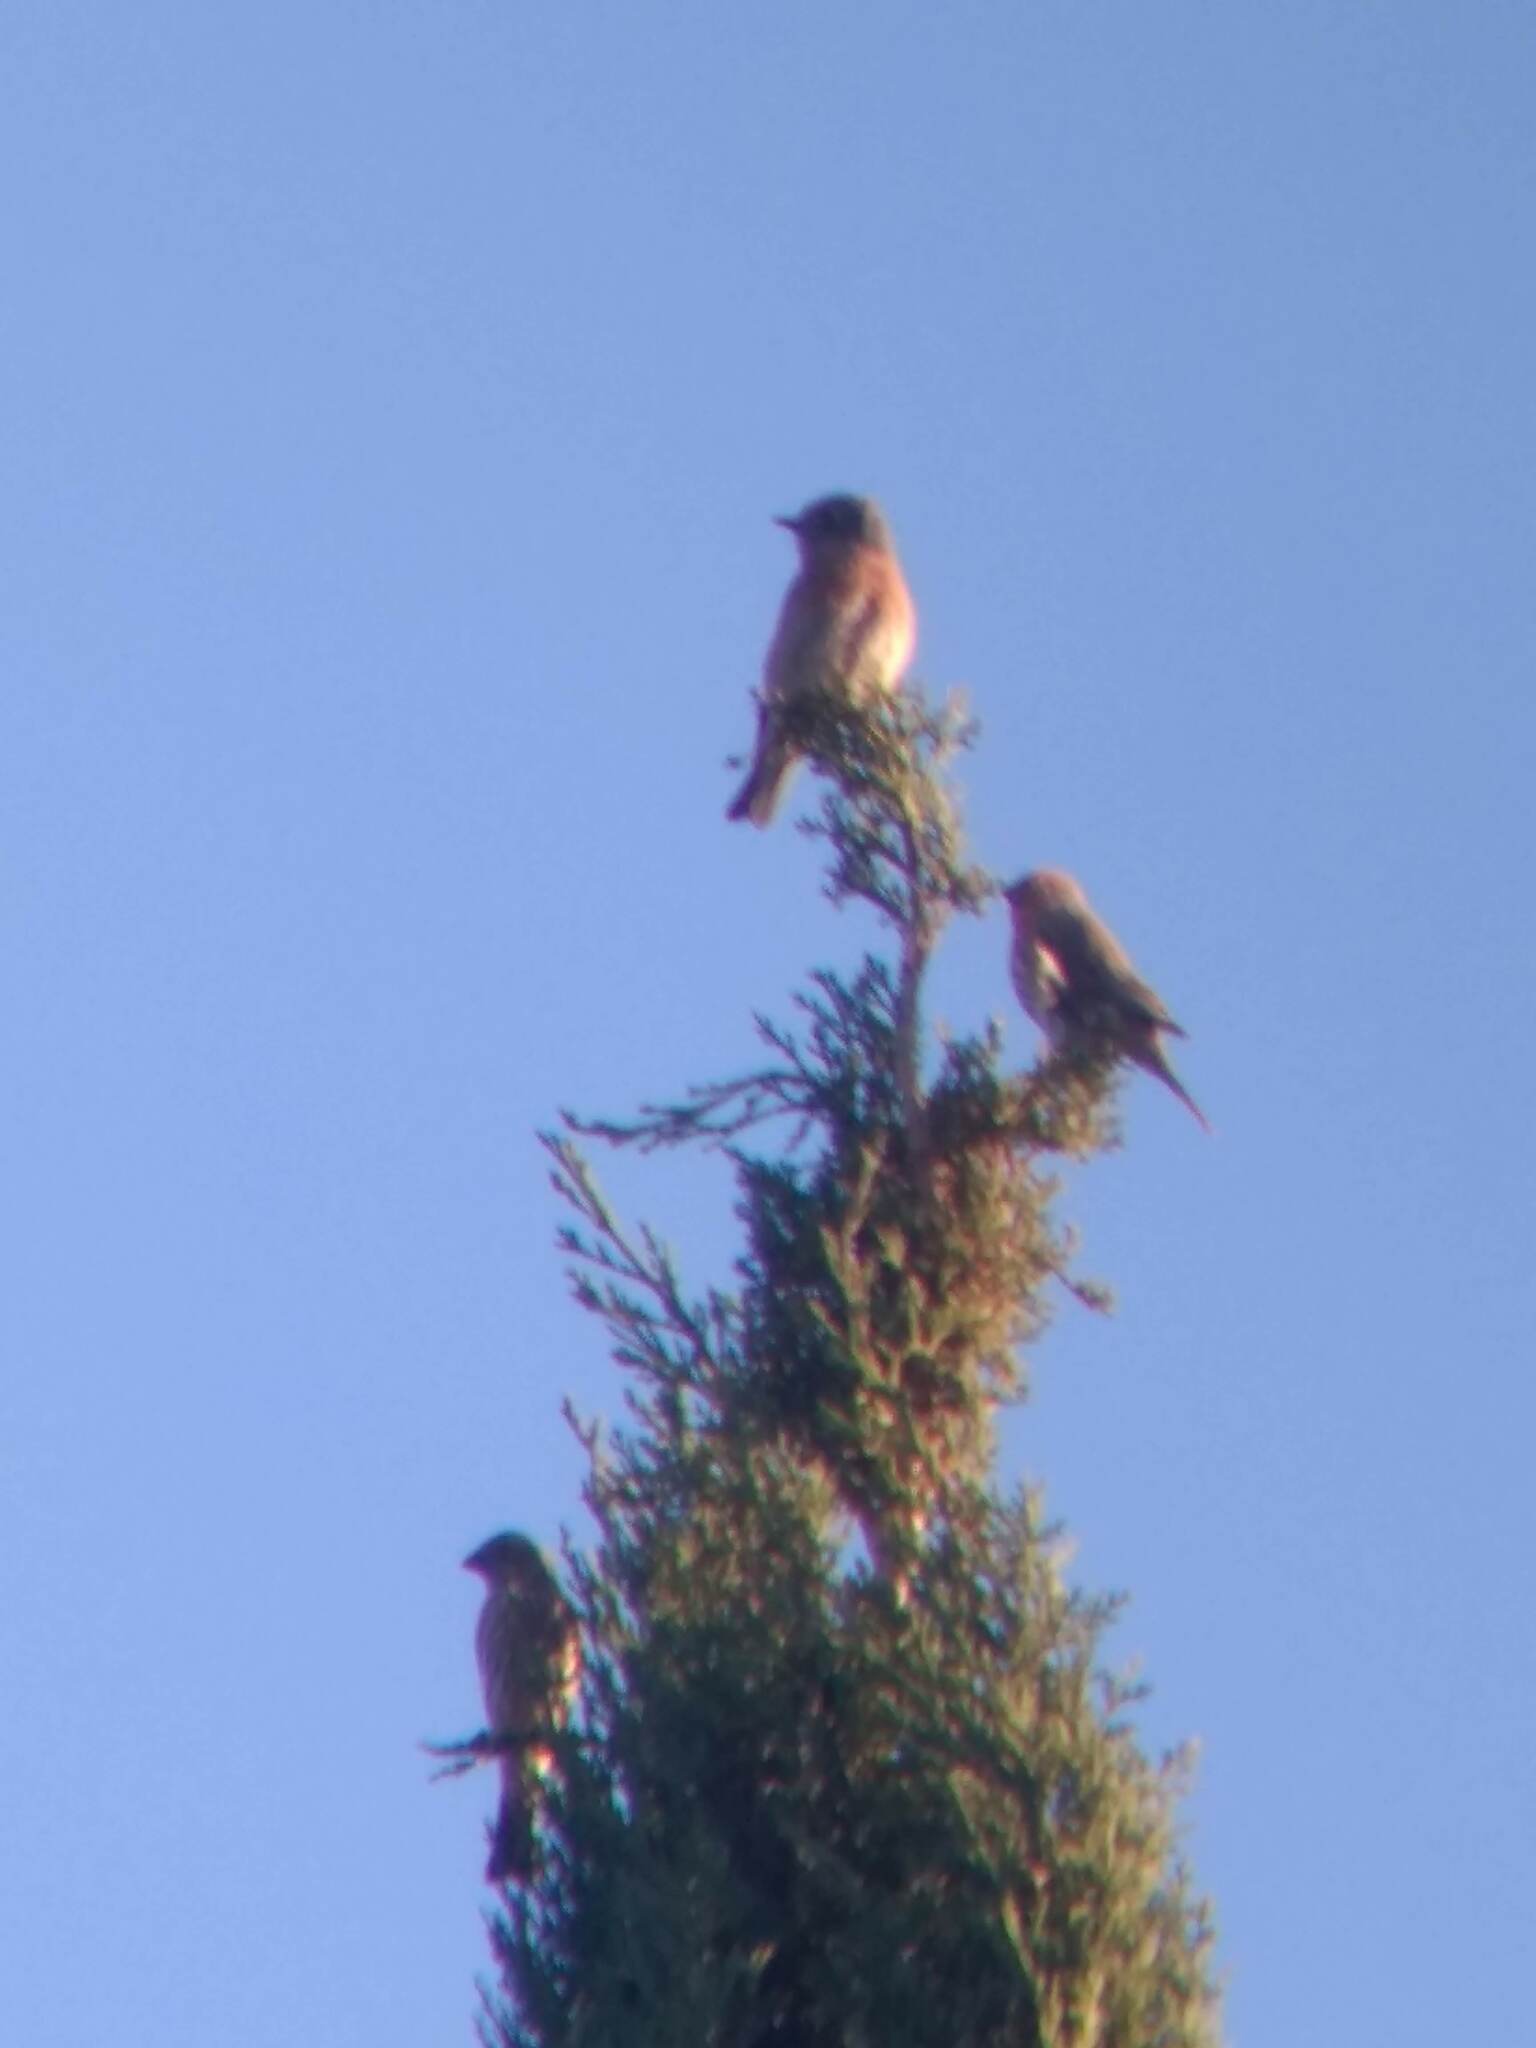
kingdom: Animalia
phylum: Chordata
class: Aves
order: Passeriformes
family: Fringillidae
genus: Haemorhous
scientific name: Haemorhous mexicanus
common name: House finch
